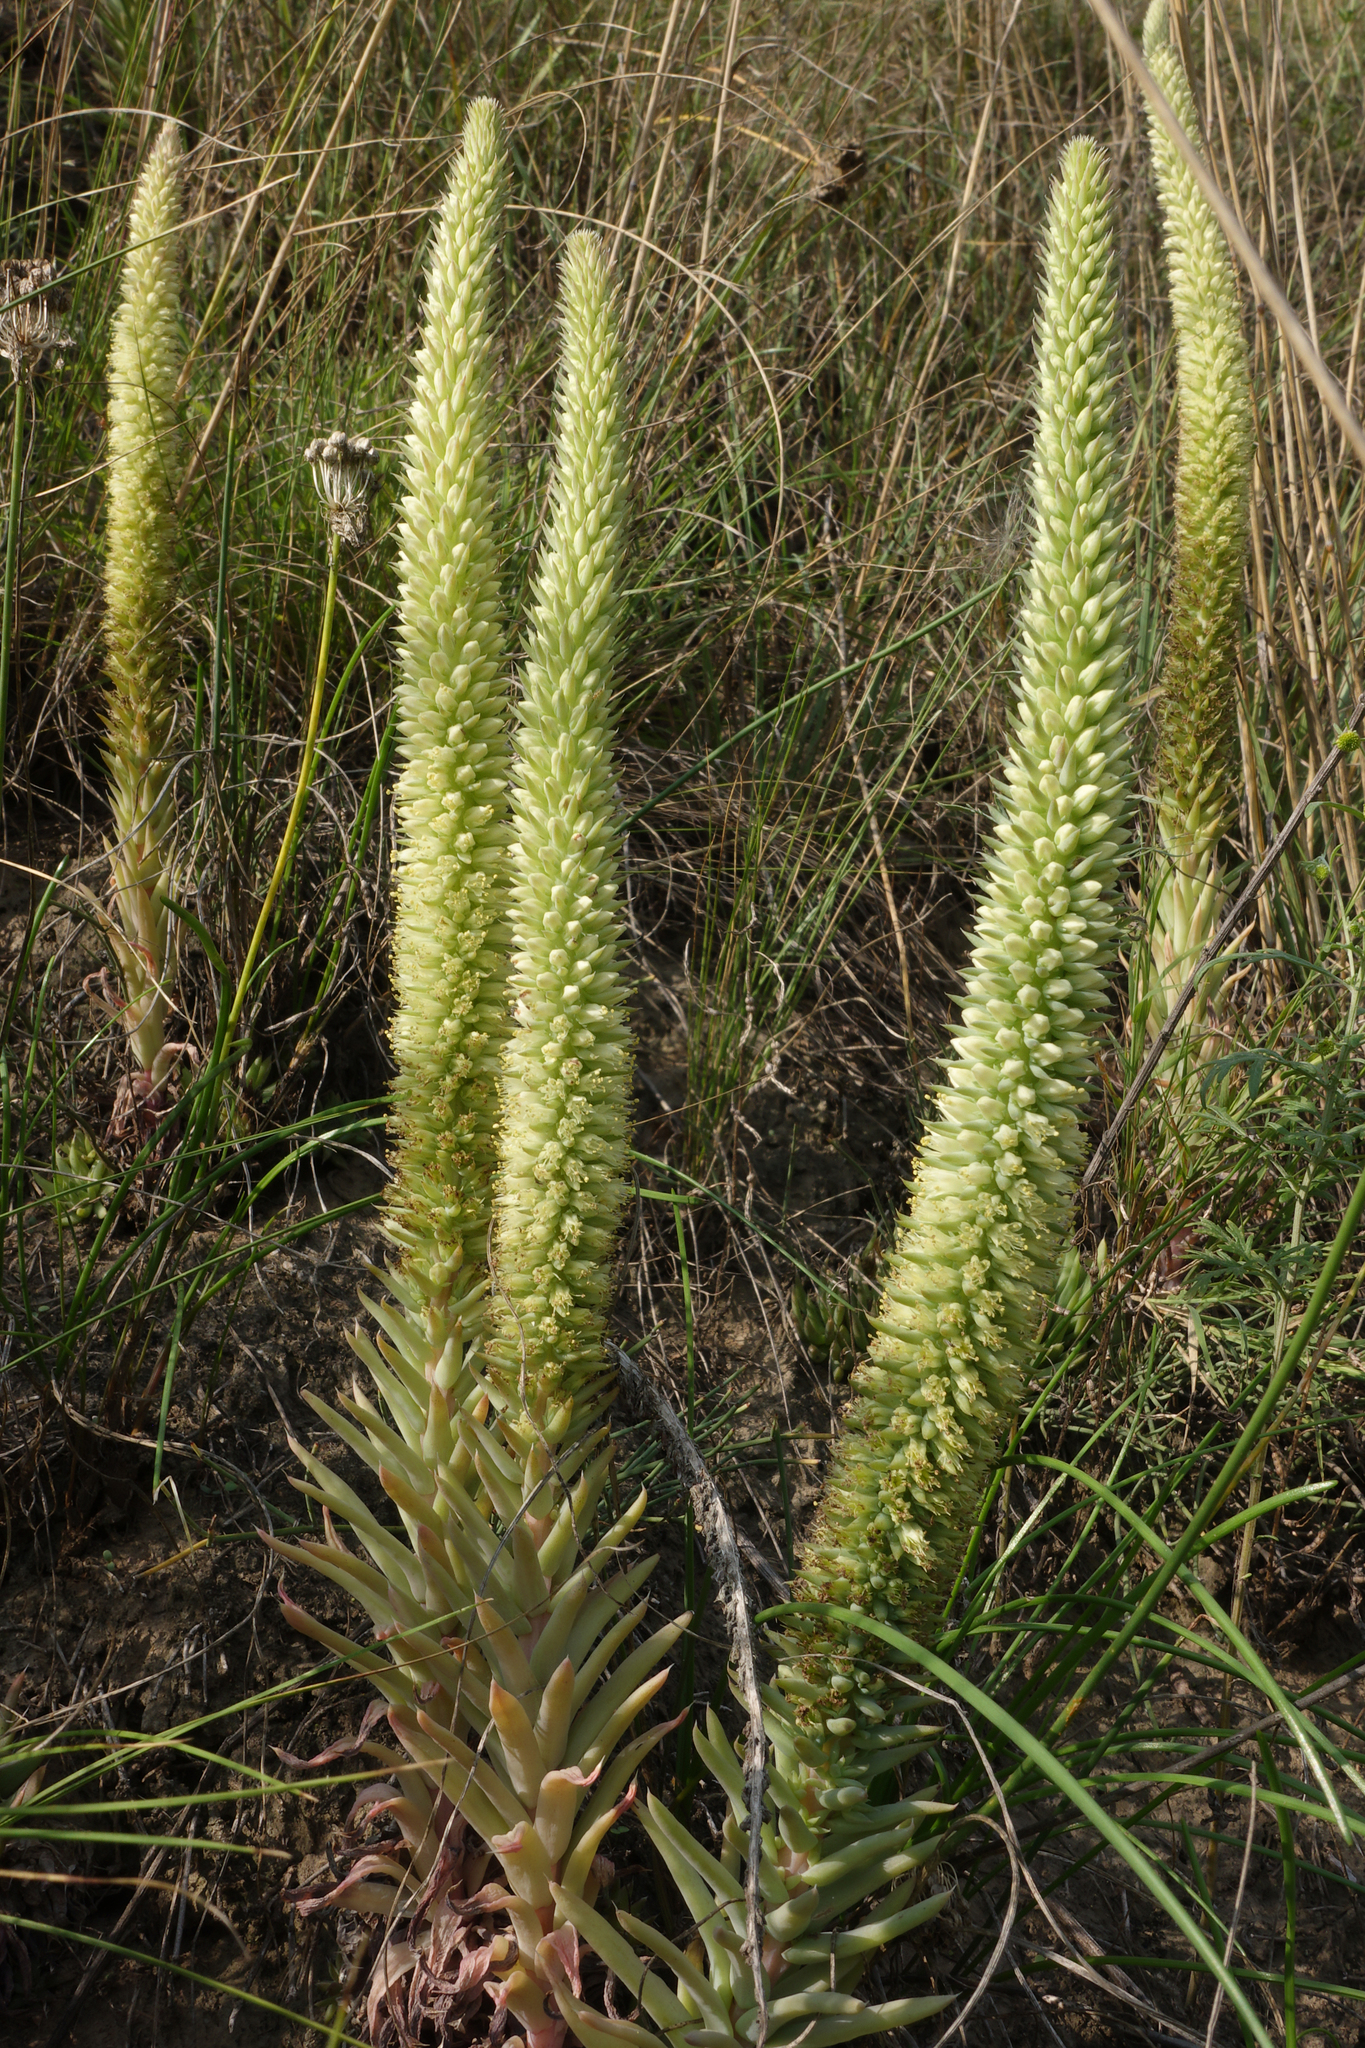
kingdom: Plantae
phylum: Tracheophyta
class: Magnoliopsida
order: Saxifragales
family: Crassulaceae
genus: Orostachys
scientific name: Orostachys spinosa
